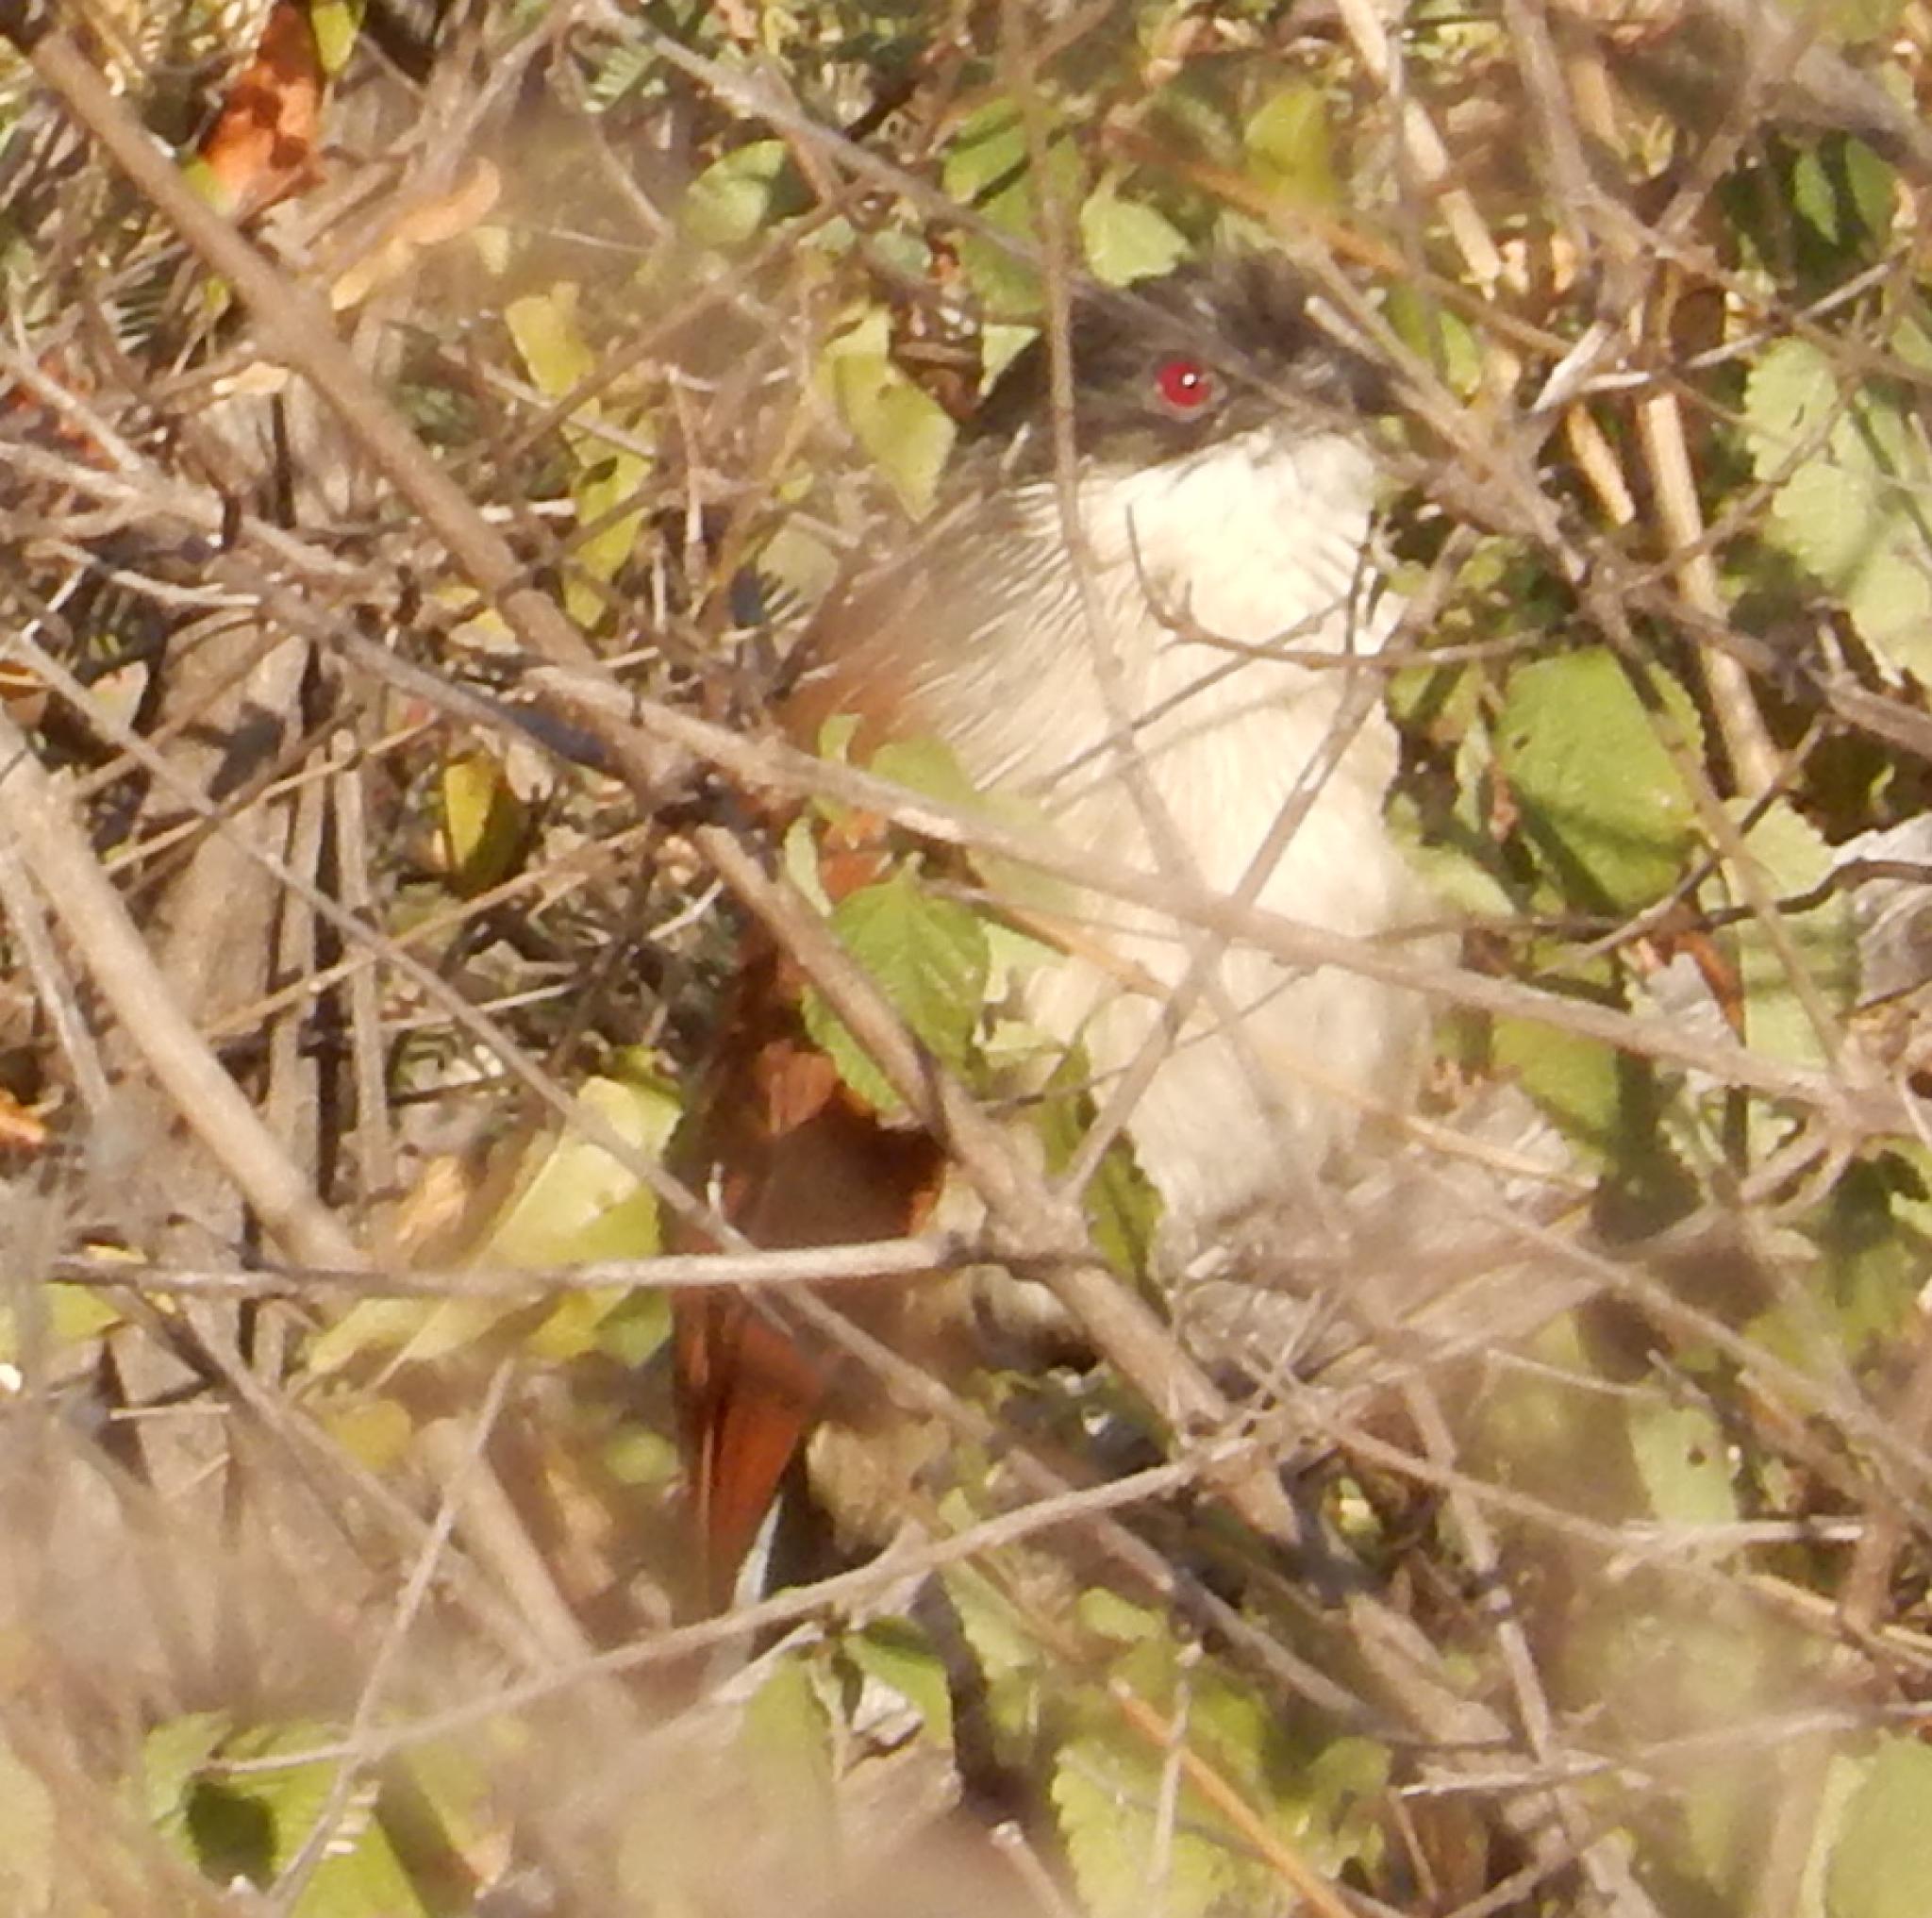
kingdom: Animalia
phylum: Chordata
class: Aves
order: Cuculiformes
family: Cuculidae
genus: Centropus
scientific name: Centropus superciliosus
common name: White-browed coucal
